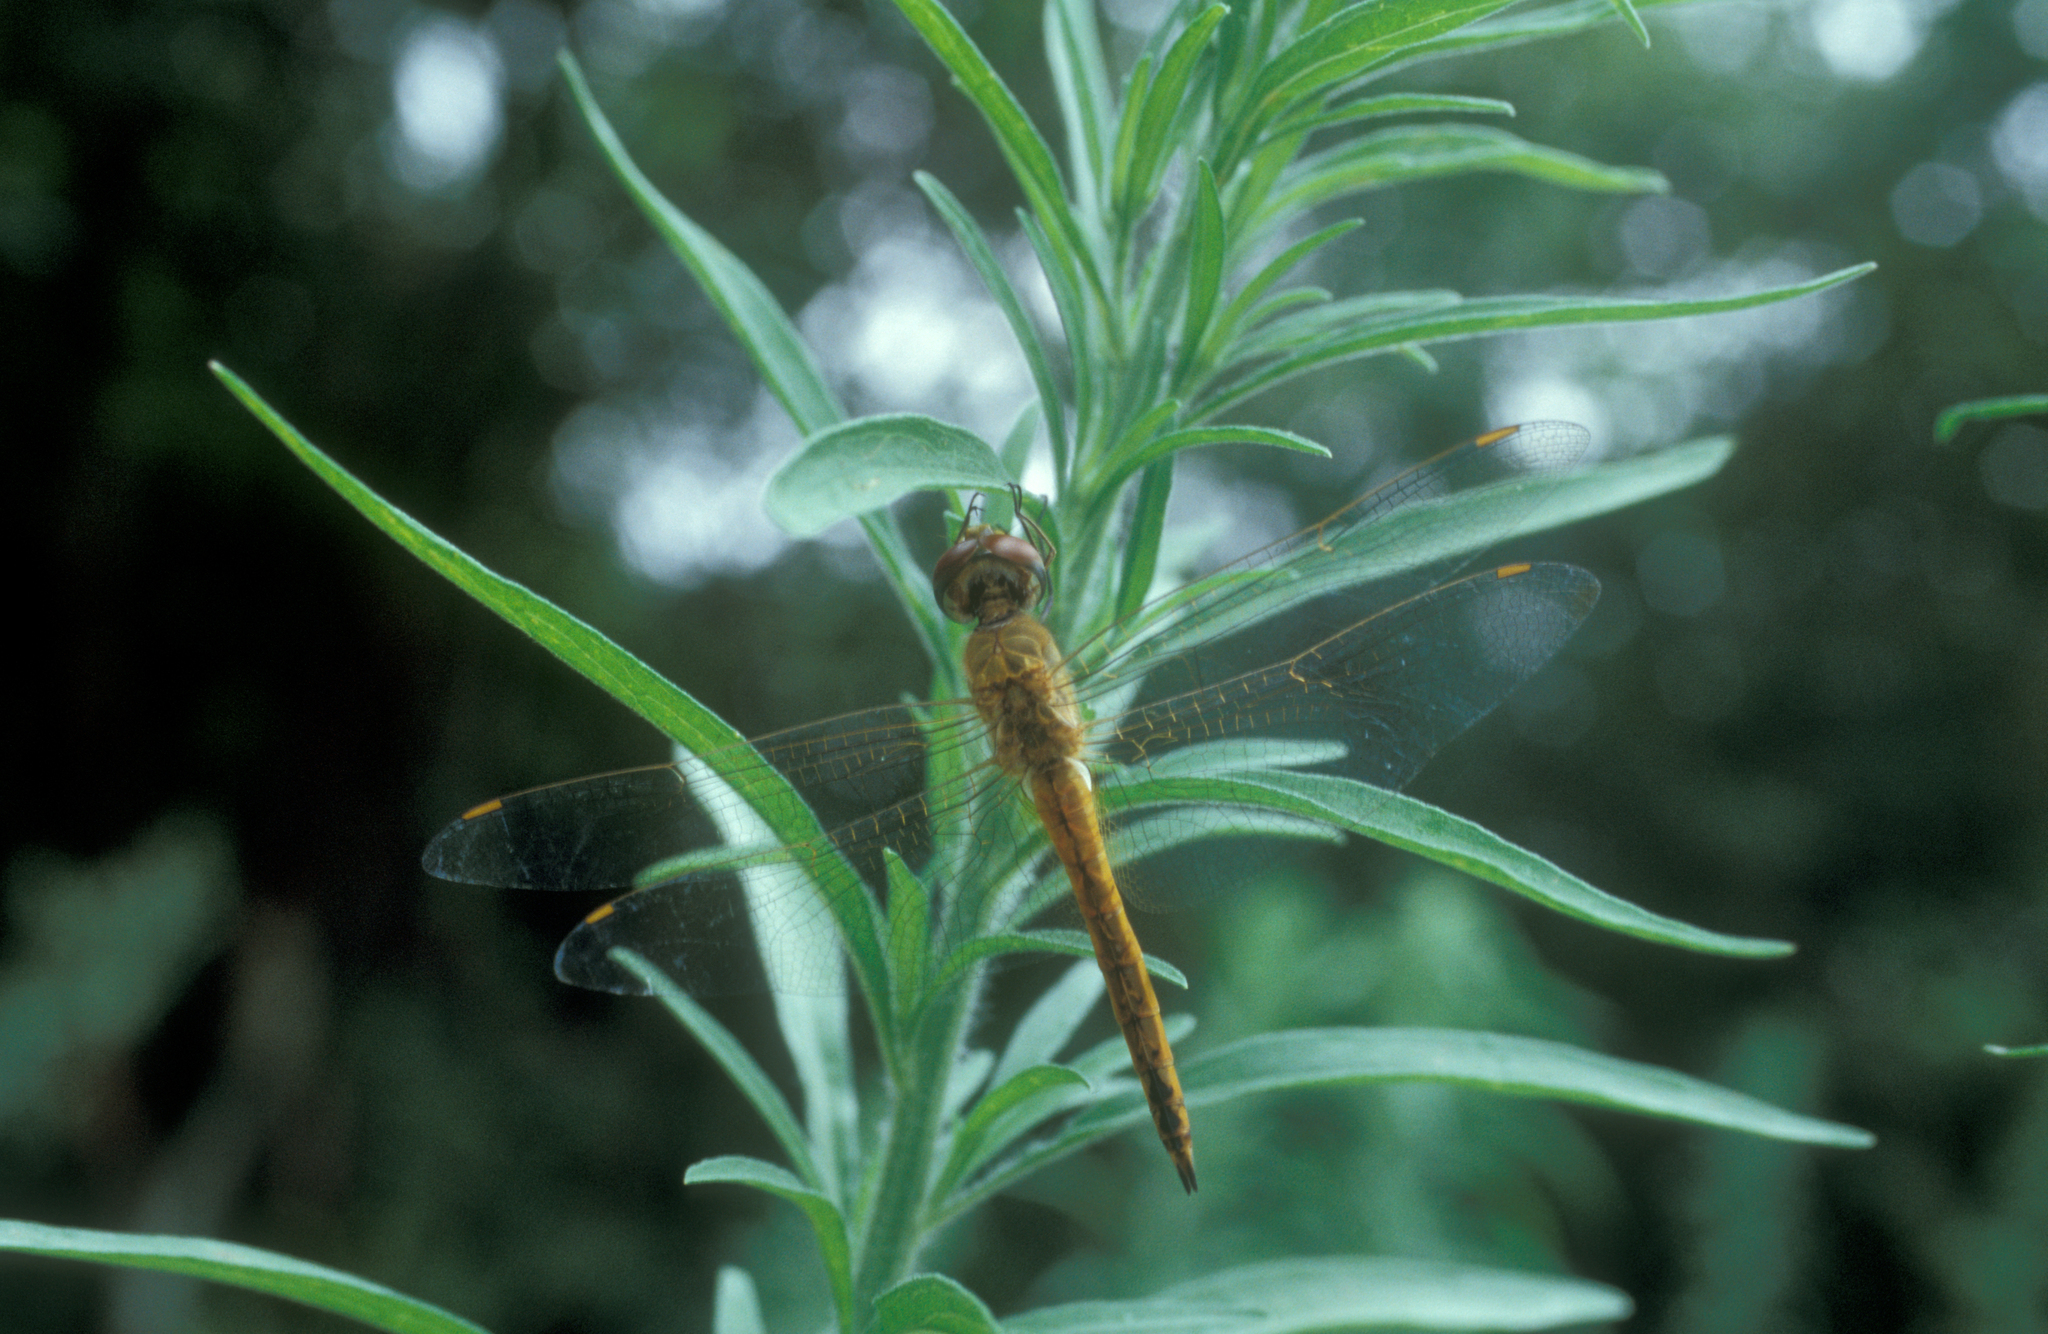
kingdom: Animalia
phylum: Arthropoda
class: Insecta
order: Odonata
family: Libellulidae
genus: Pantala
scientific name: Pantala flavescens
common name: Wandering glider
